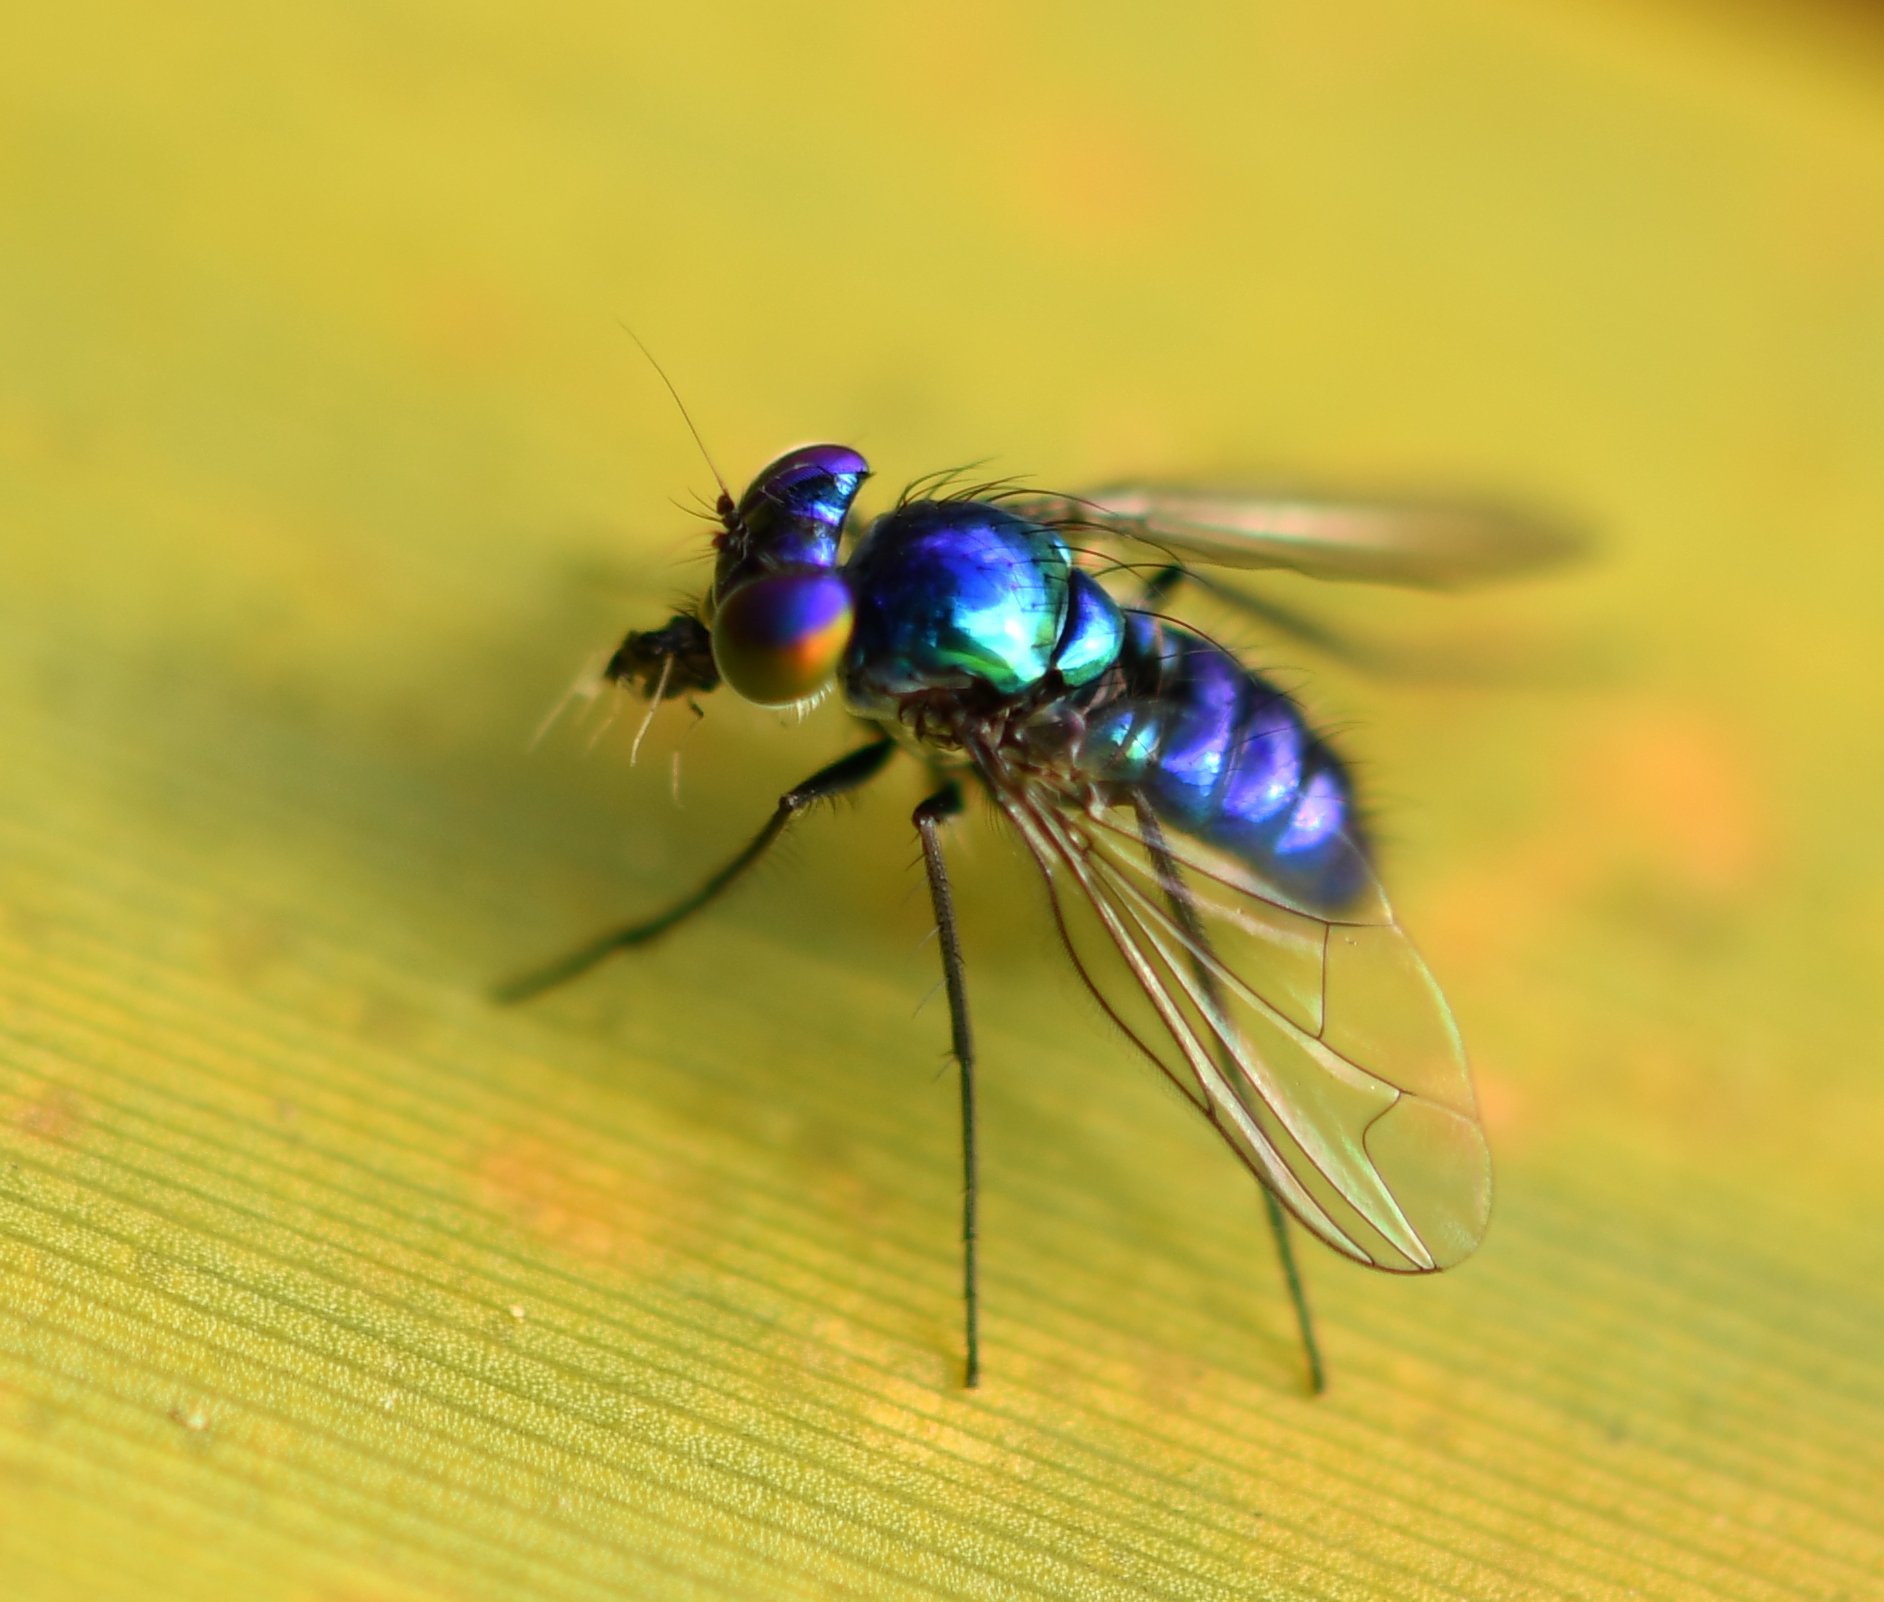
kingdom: Animalia
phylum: Arthropoda
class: Insecta
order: Diptera
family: Dolichopodidae
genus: Condylostylus
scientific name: Condylostylus mundus
